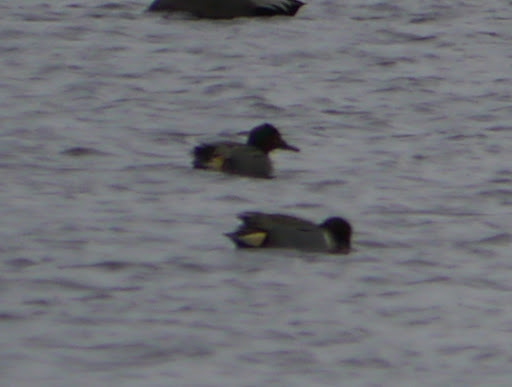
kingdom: Animalia
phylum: Chordata
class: Aves
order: Anseriformes
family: Anatidae
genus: Anas
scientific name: Anas crecca
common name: Eurasian teal
